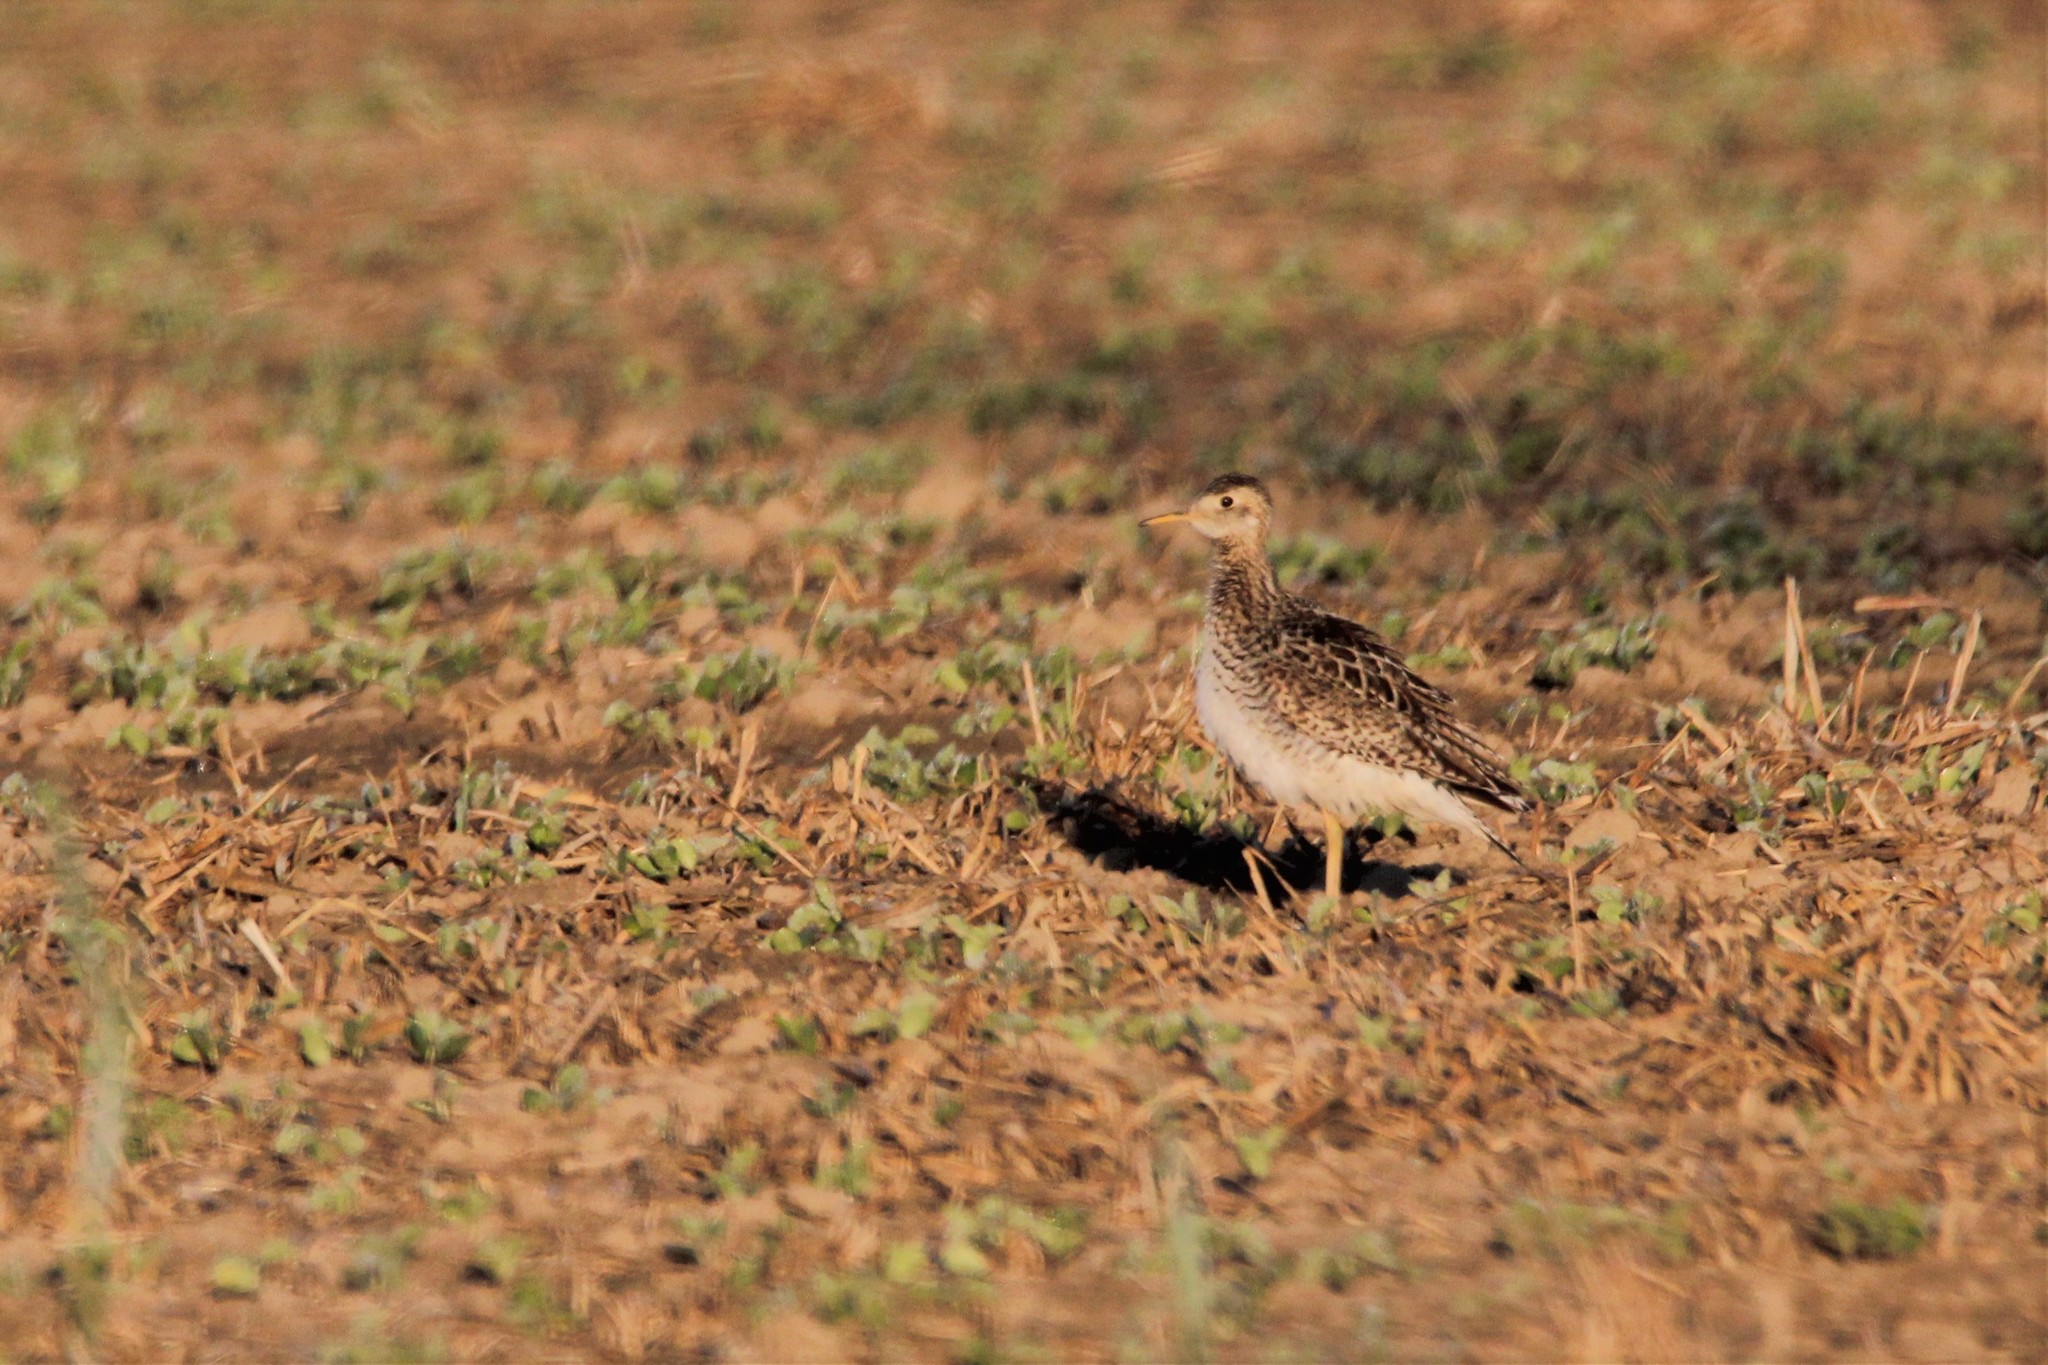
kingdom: Animalia
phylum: Chordata
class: Aves
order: Charadriiformes
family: Scolopacidae
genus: Bartramia
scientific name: Bartramia longicauda
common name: Upland sandpiper
